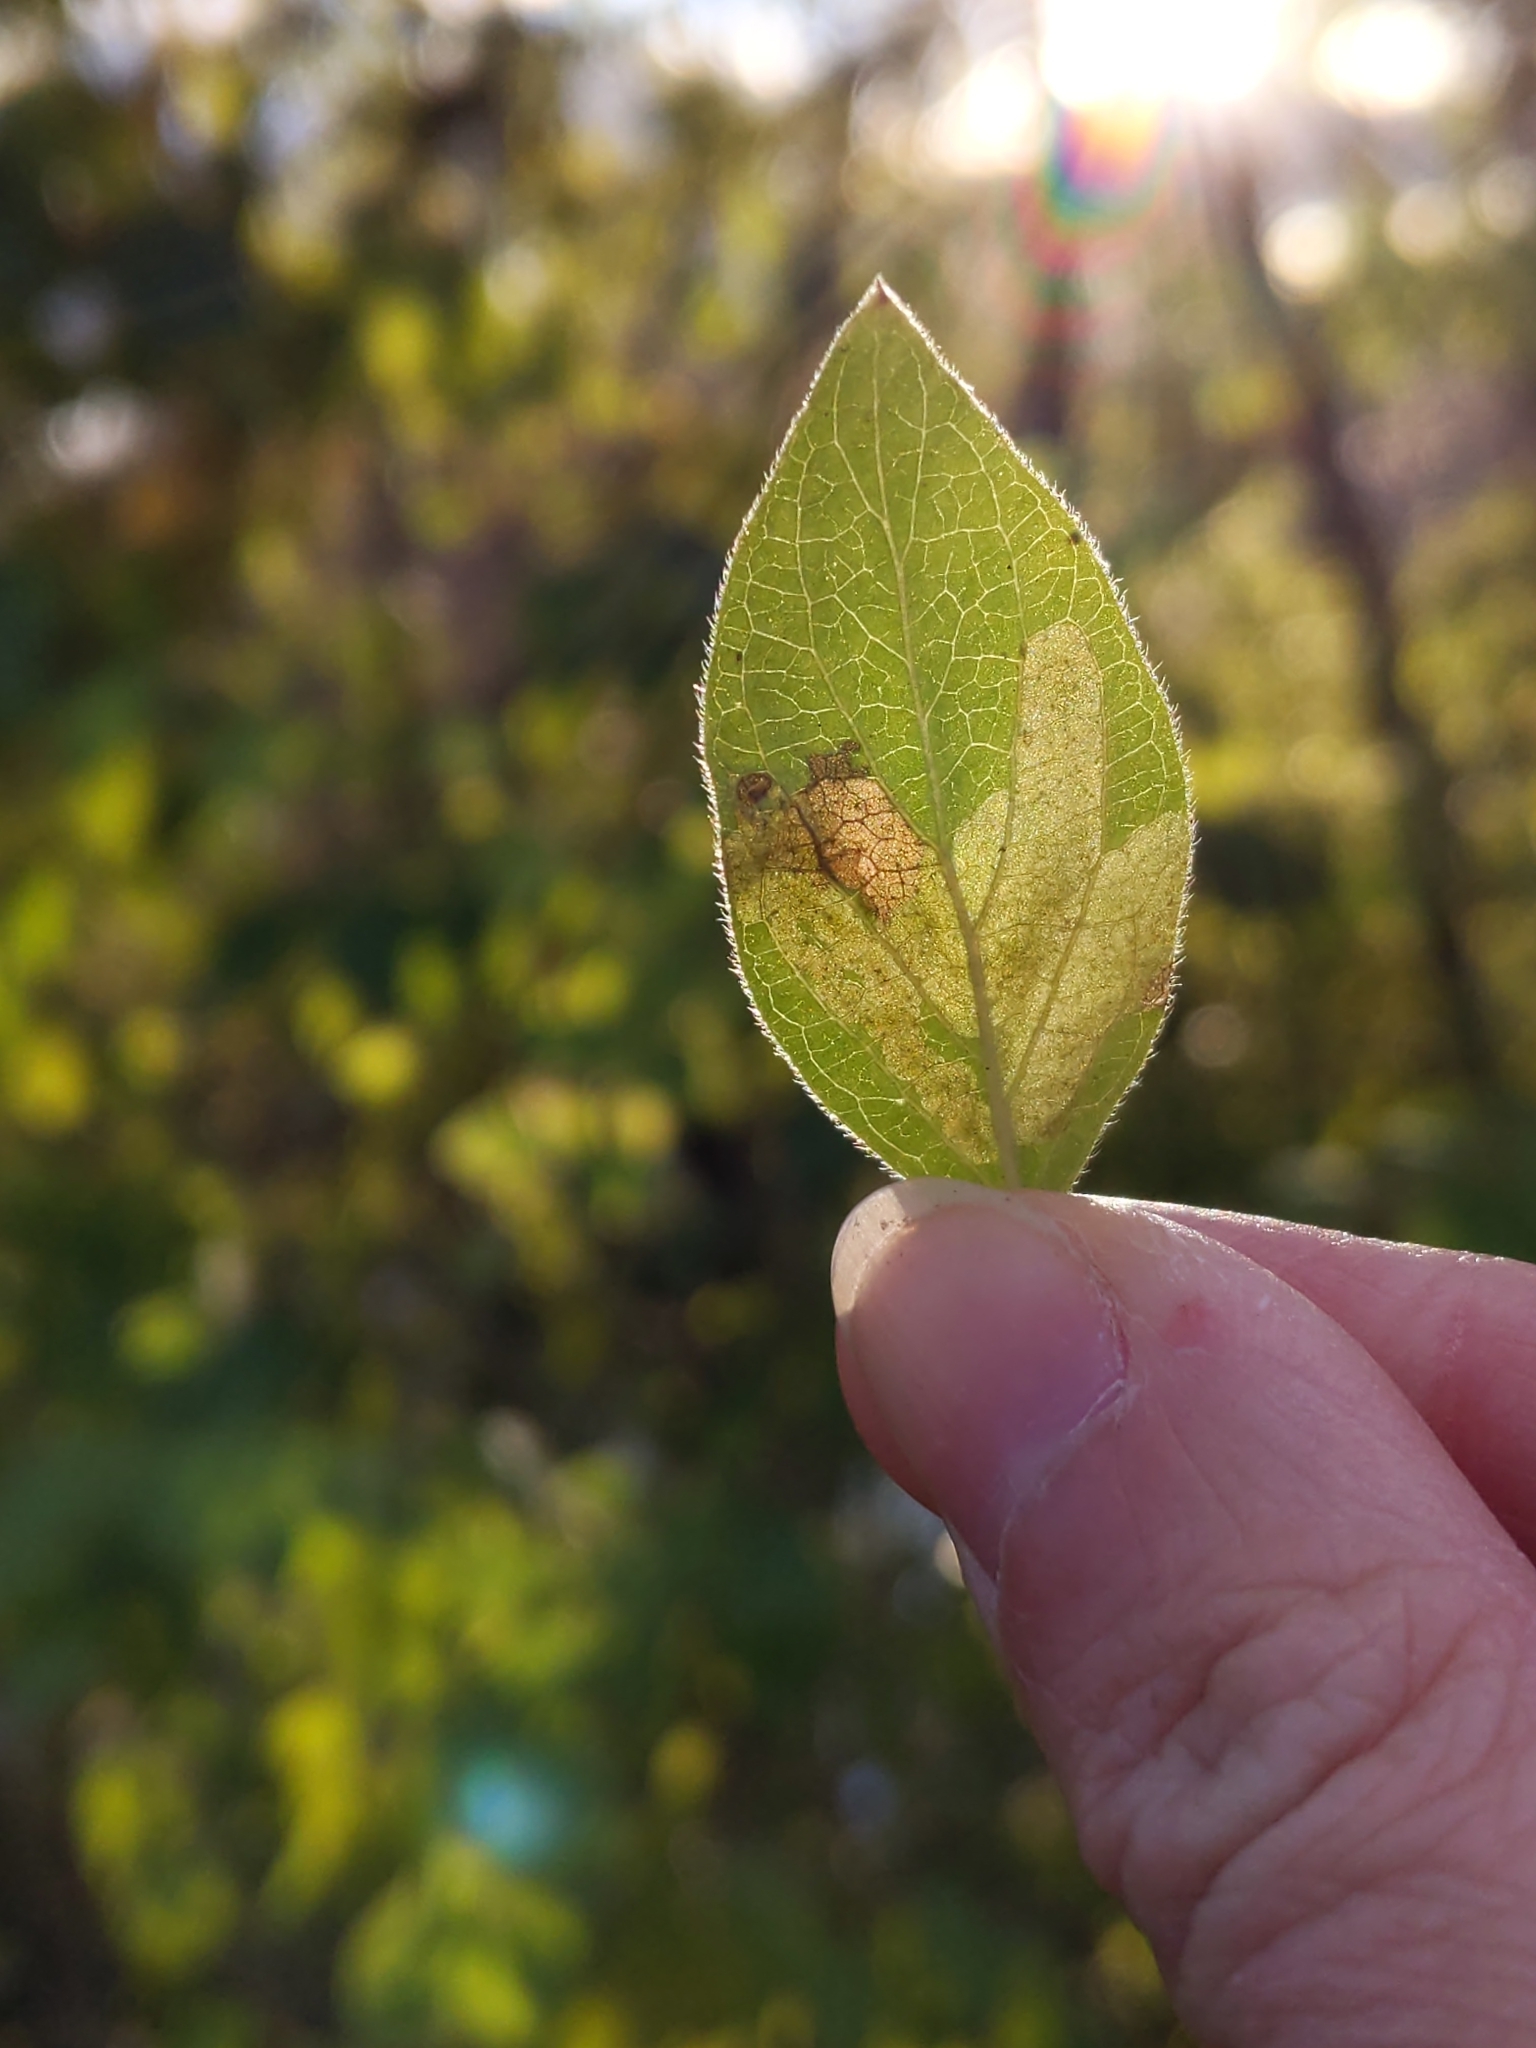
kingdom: Animalia
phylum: Arthropoda
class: Insecta
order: Diptera
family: Agromyzidae
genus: Aulagromyza
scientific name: Aulagromyza
